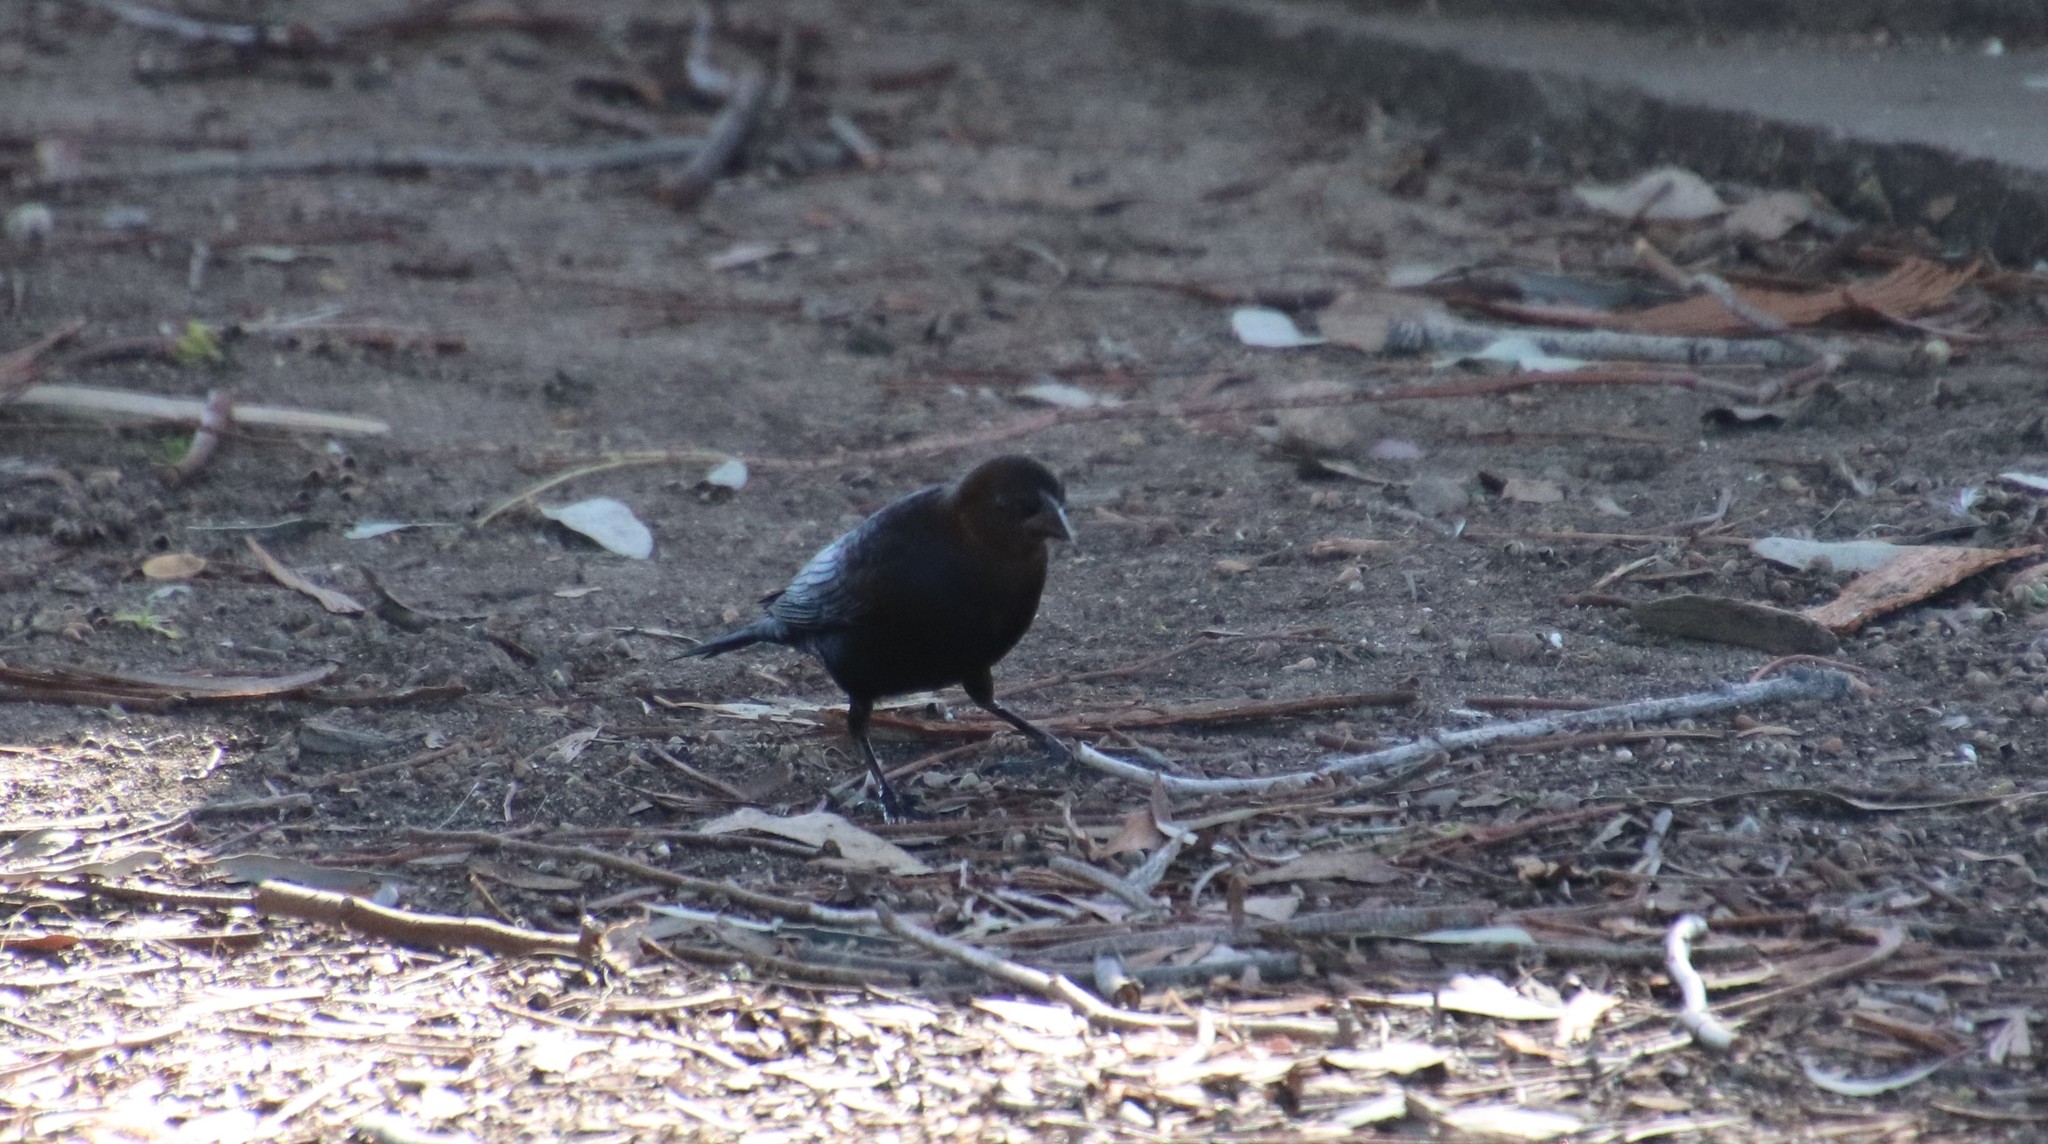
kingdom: Animalia
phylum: Chordata
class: Aves
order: Passeriformes
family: Icteridae
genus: Molothrus
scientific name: Molothrus ater
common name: Brown-headed cowbird
